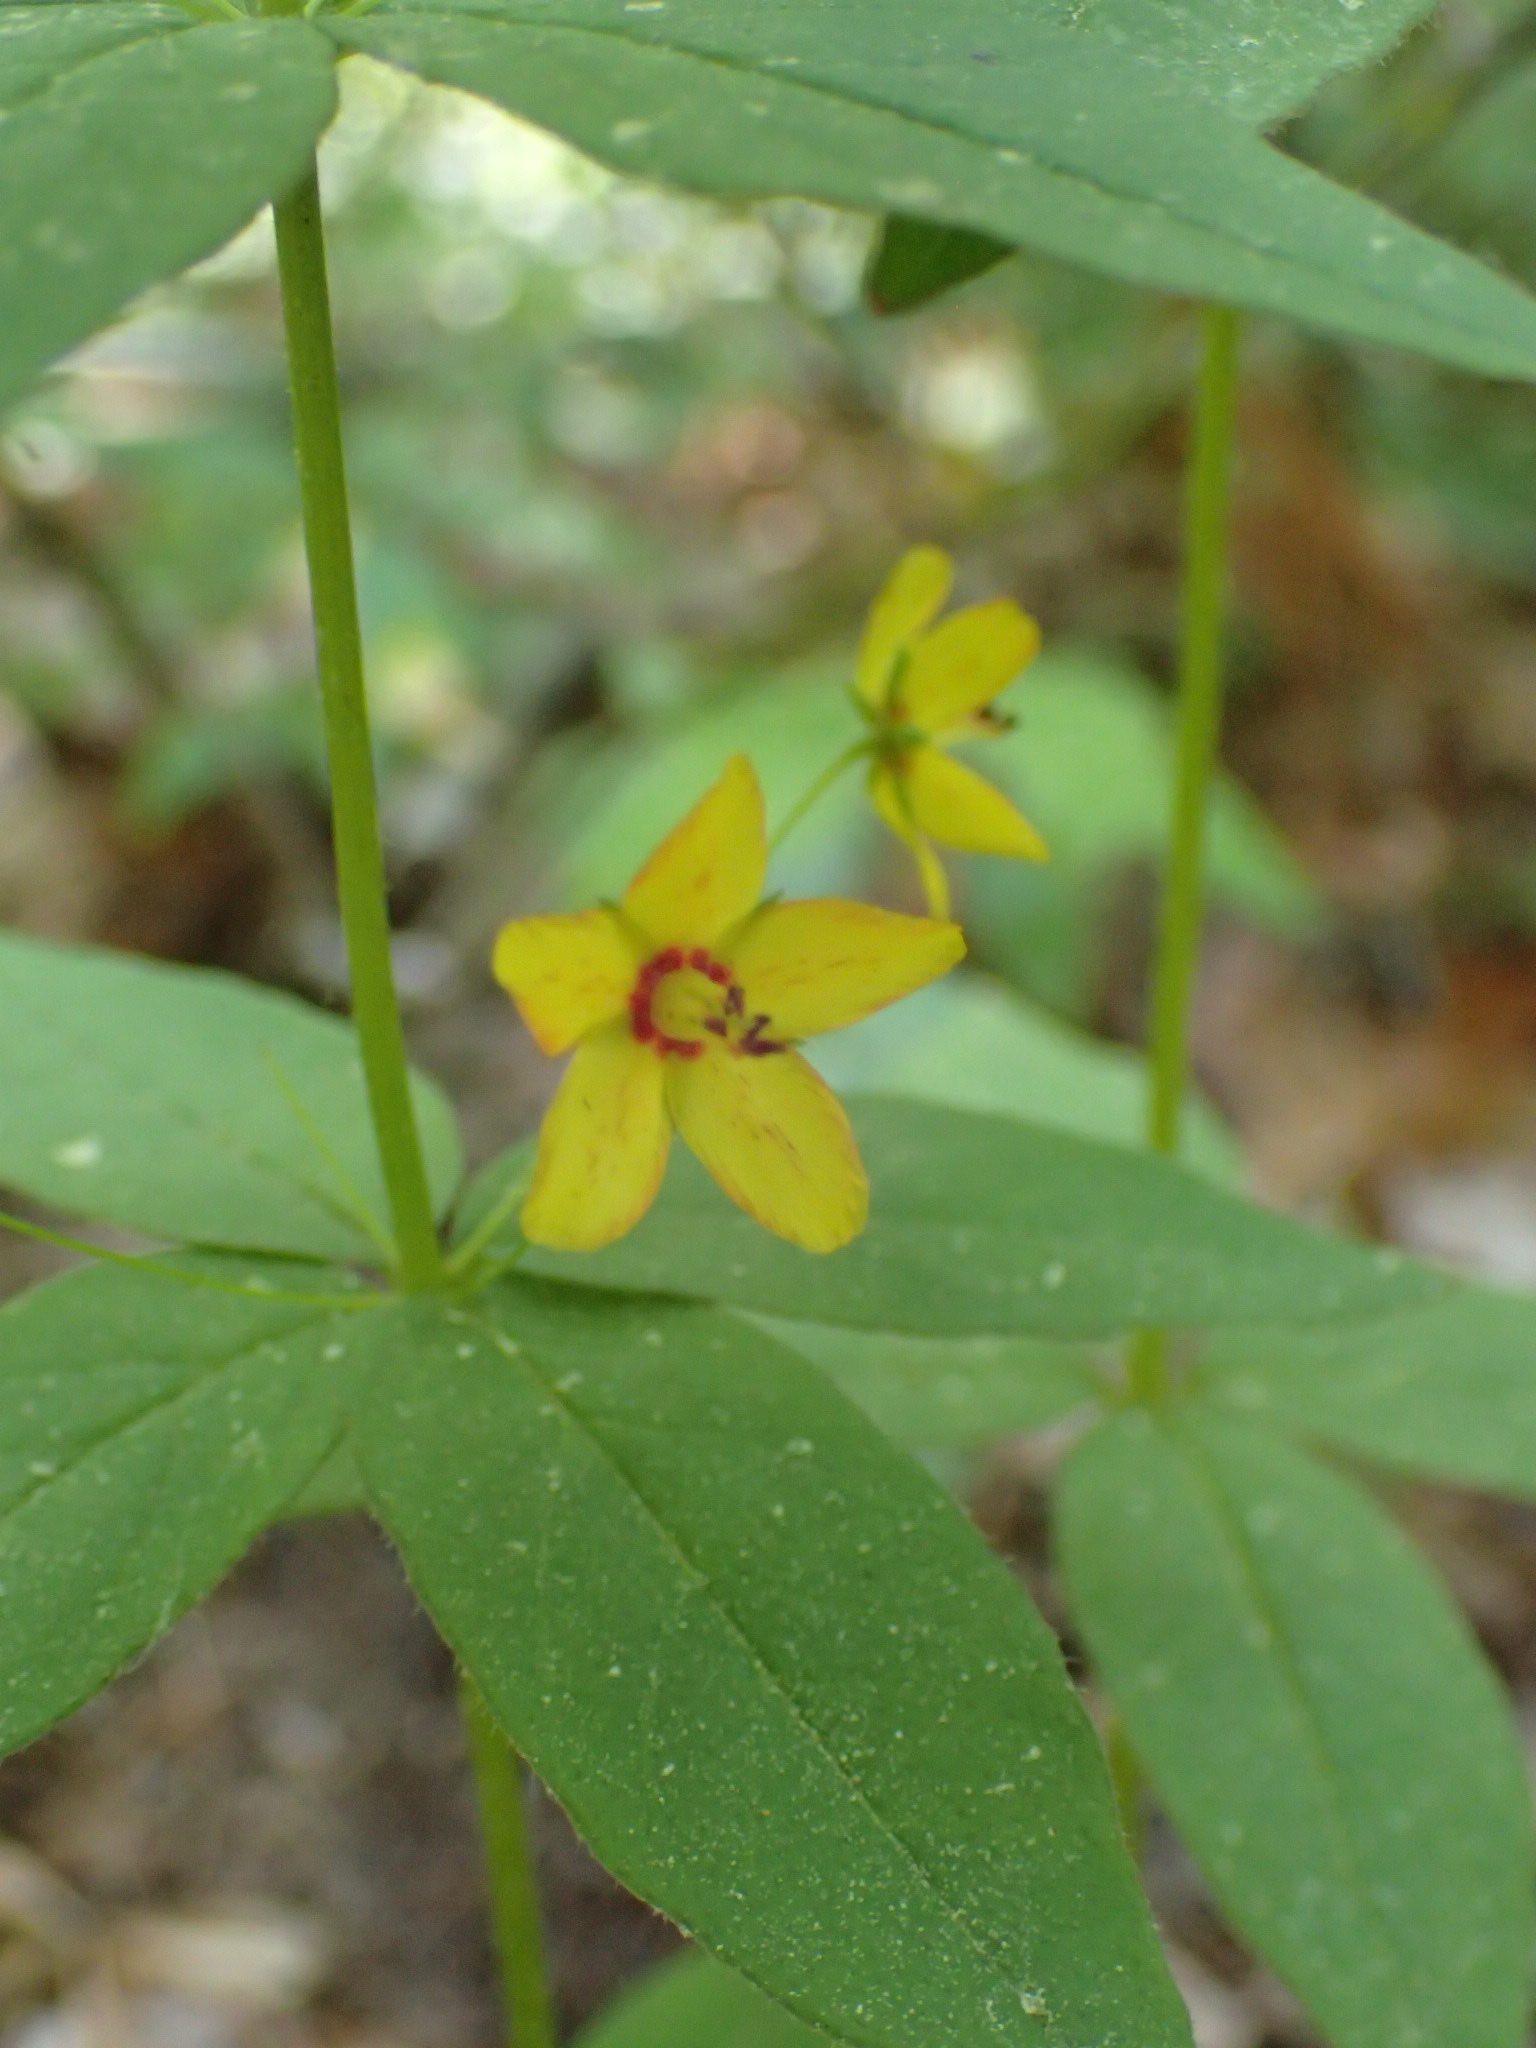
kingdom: Plantae
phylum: Tracheophyta
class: Magnoliopsida
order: Ericales
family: Primulaceae
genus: Lysimachia
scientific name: Lysimachia quadrifolia
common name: Whorled loosestrife
